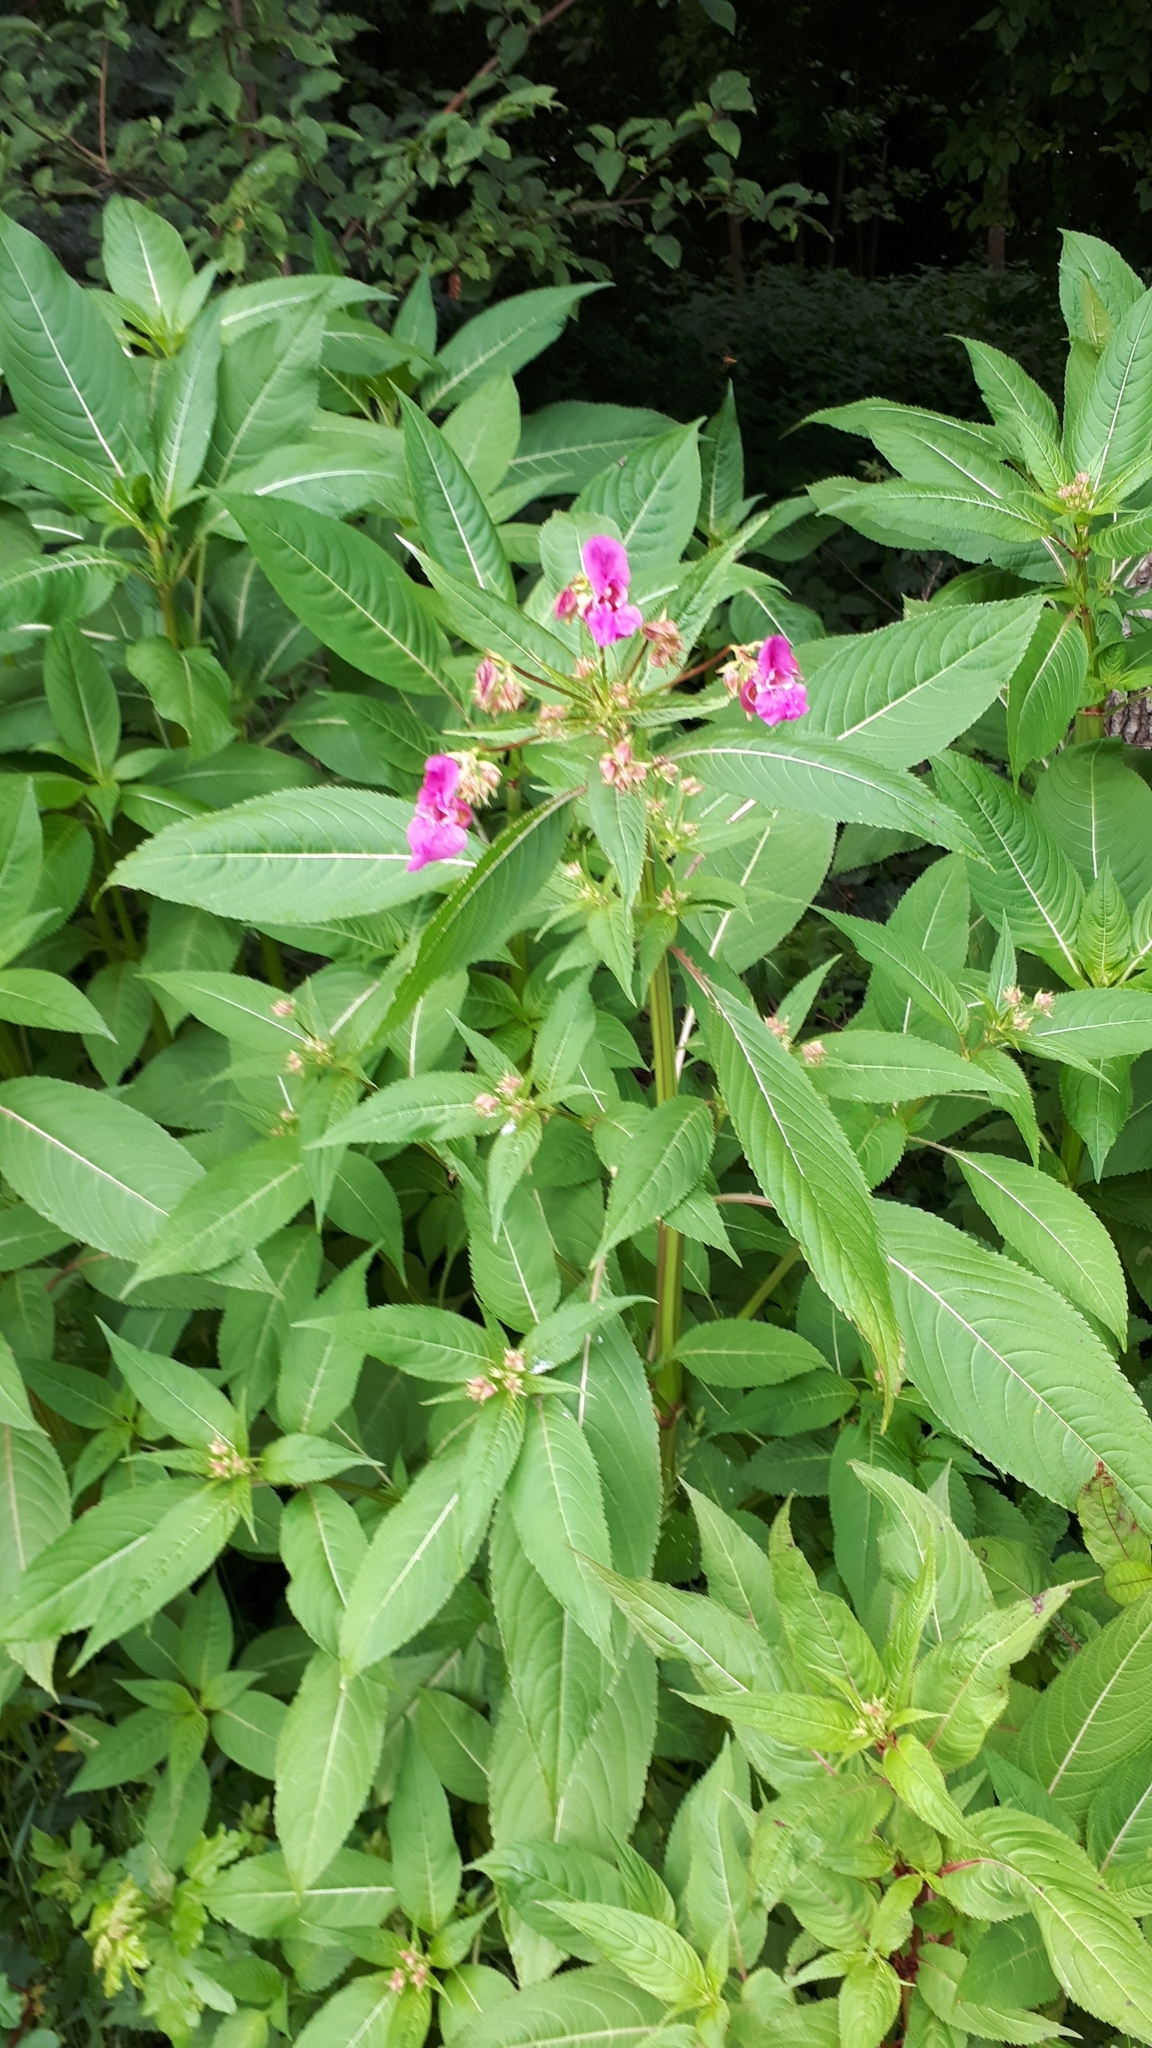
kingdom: Plantae
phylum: Tracheophyta
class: Magnoliopsida
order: Ericales
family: Balsaminaceae
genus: Impatiens
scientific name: Impatiens glandulifera
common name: Himalayan balsam
